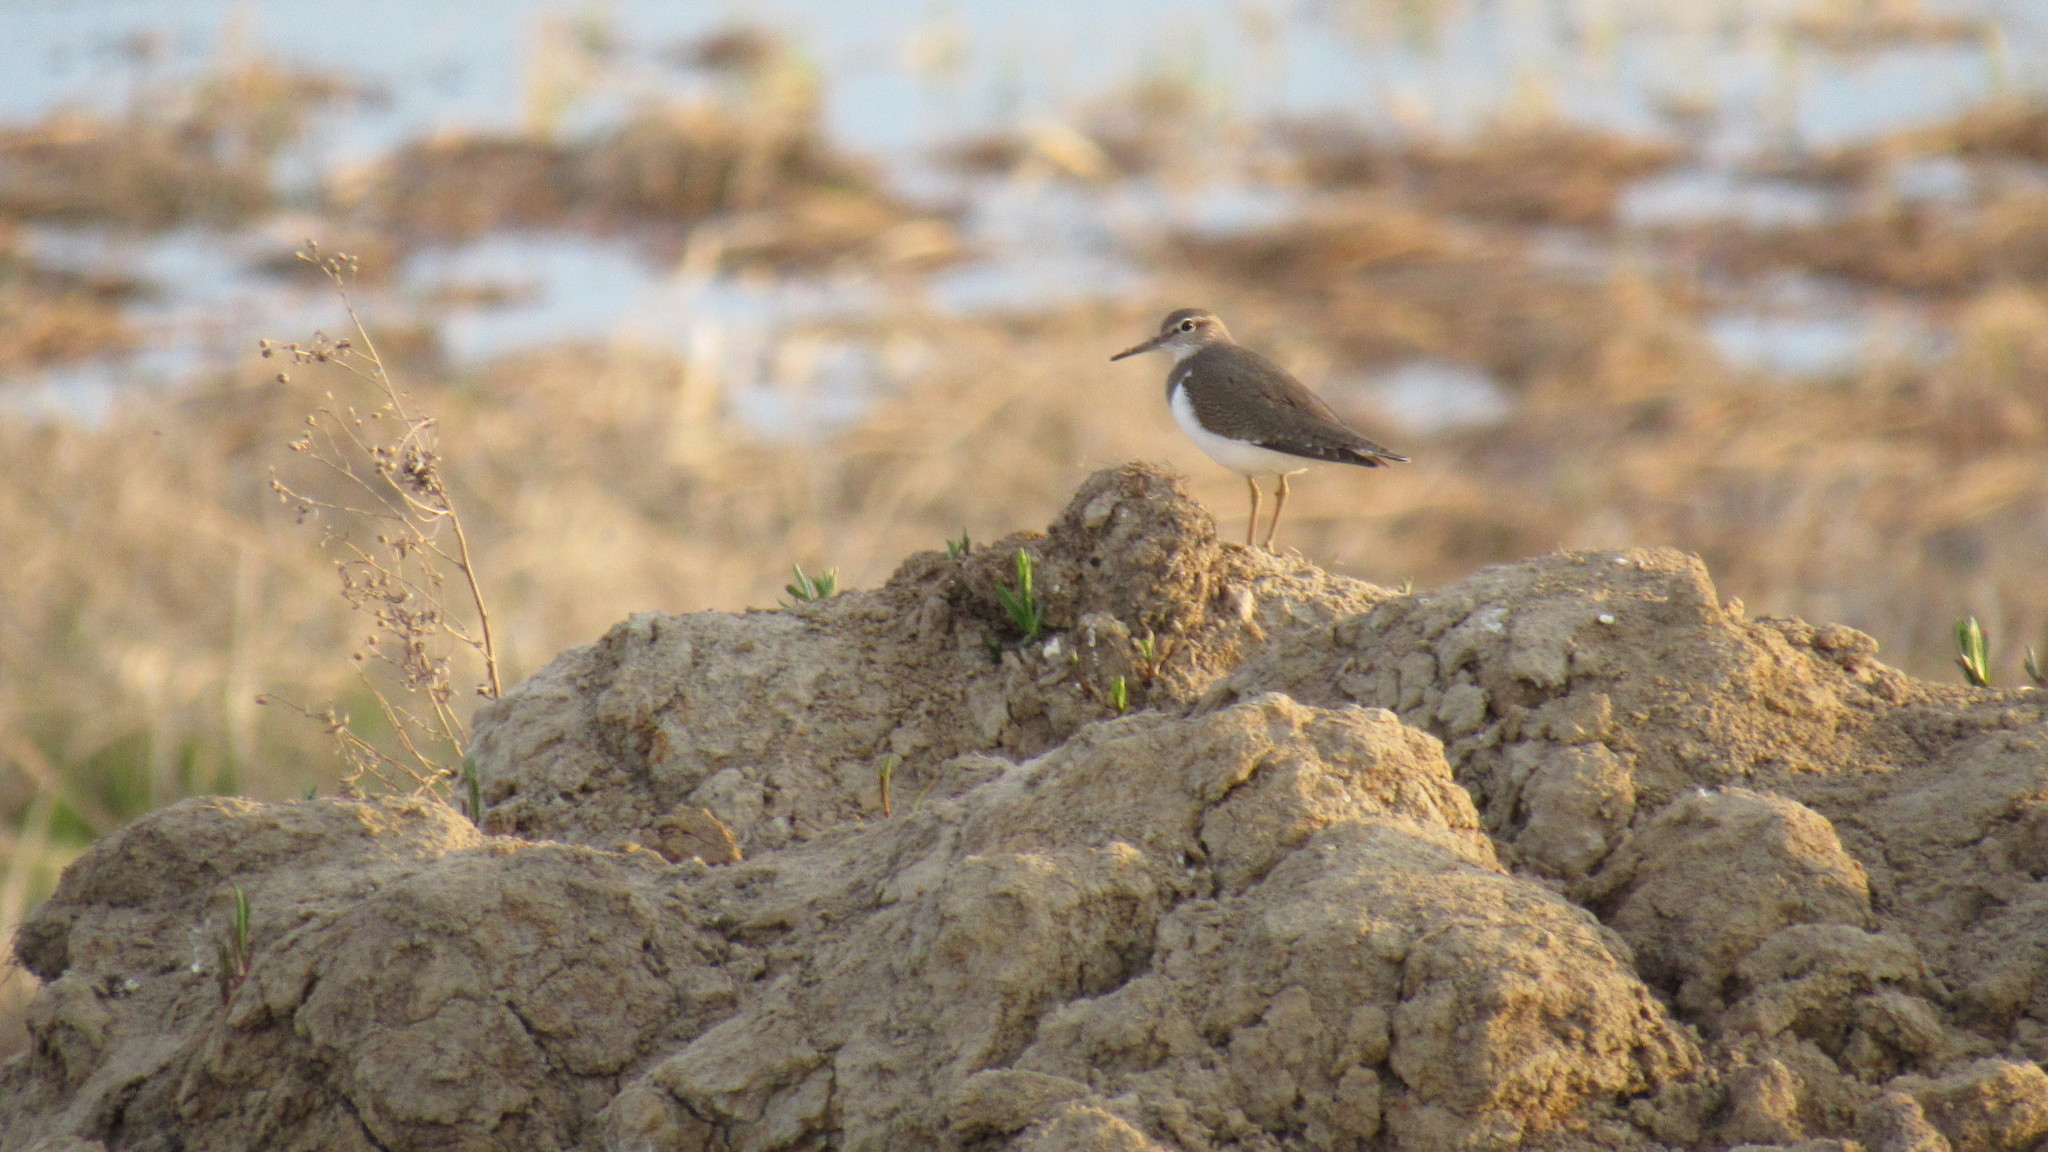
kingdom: Animalia
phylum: Chordata
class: Aves
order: Charadriiformes
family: Scolopacidae
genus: Actitis
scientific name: Actitis hypoleucos
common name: Common sandpiper
